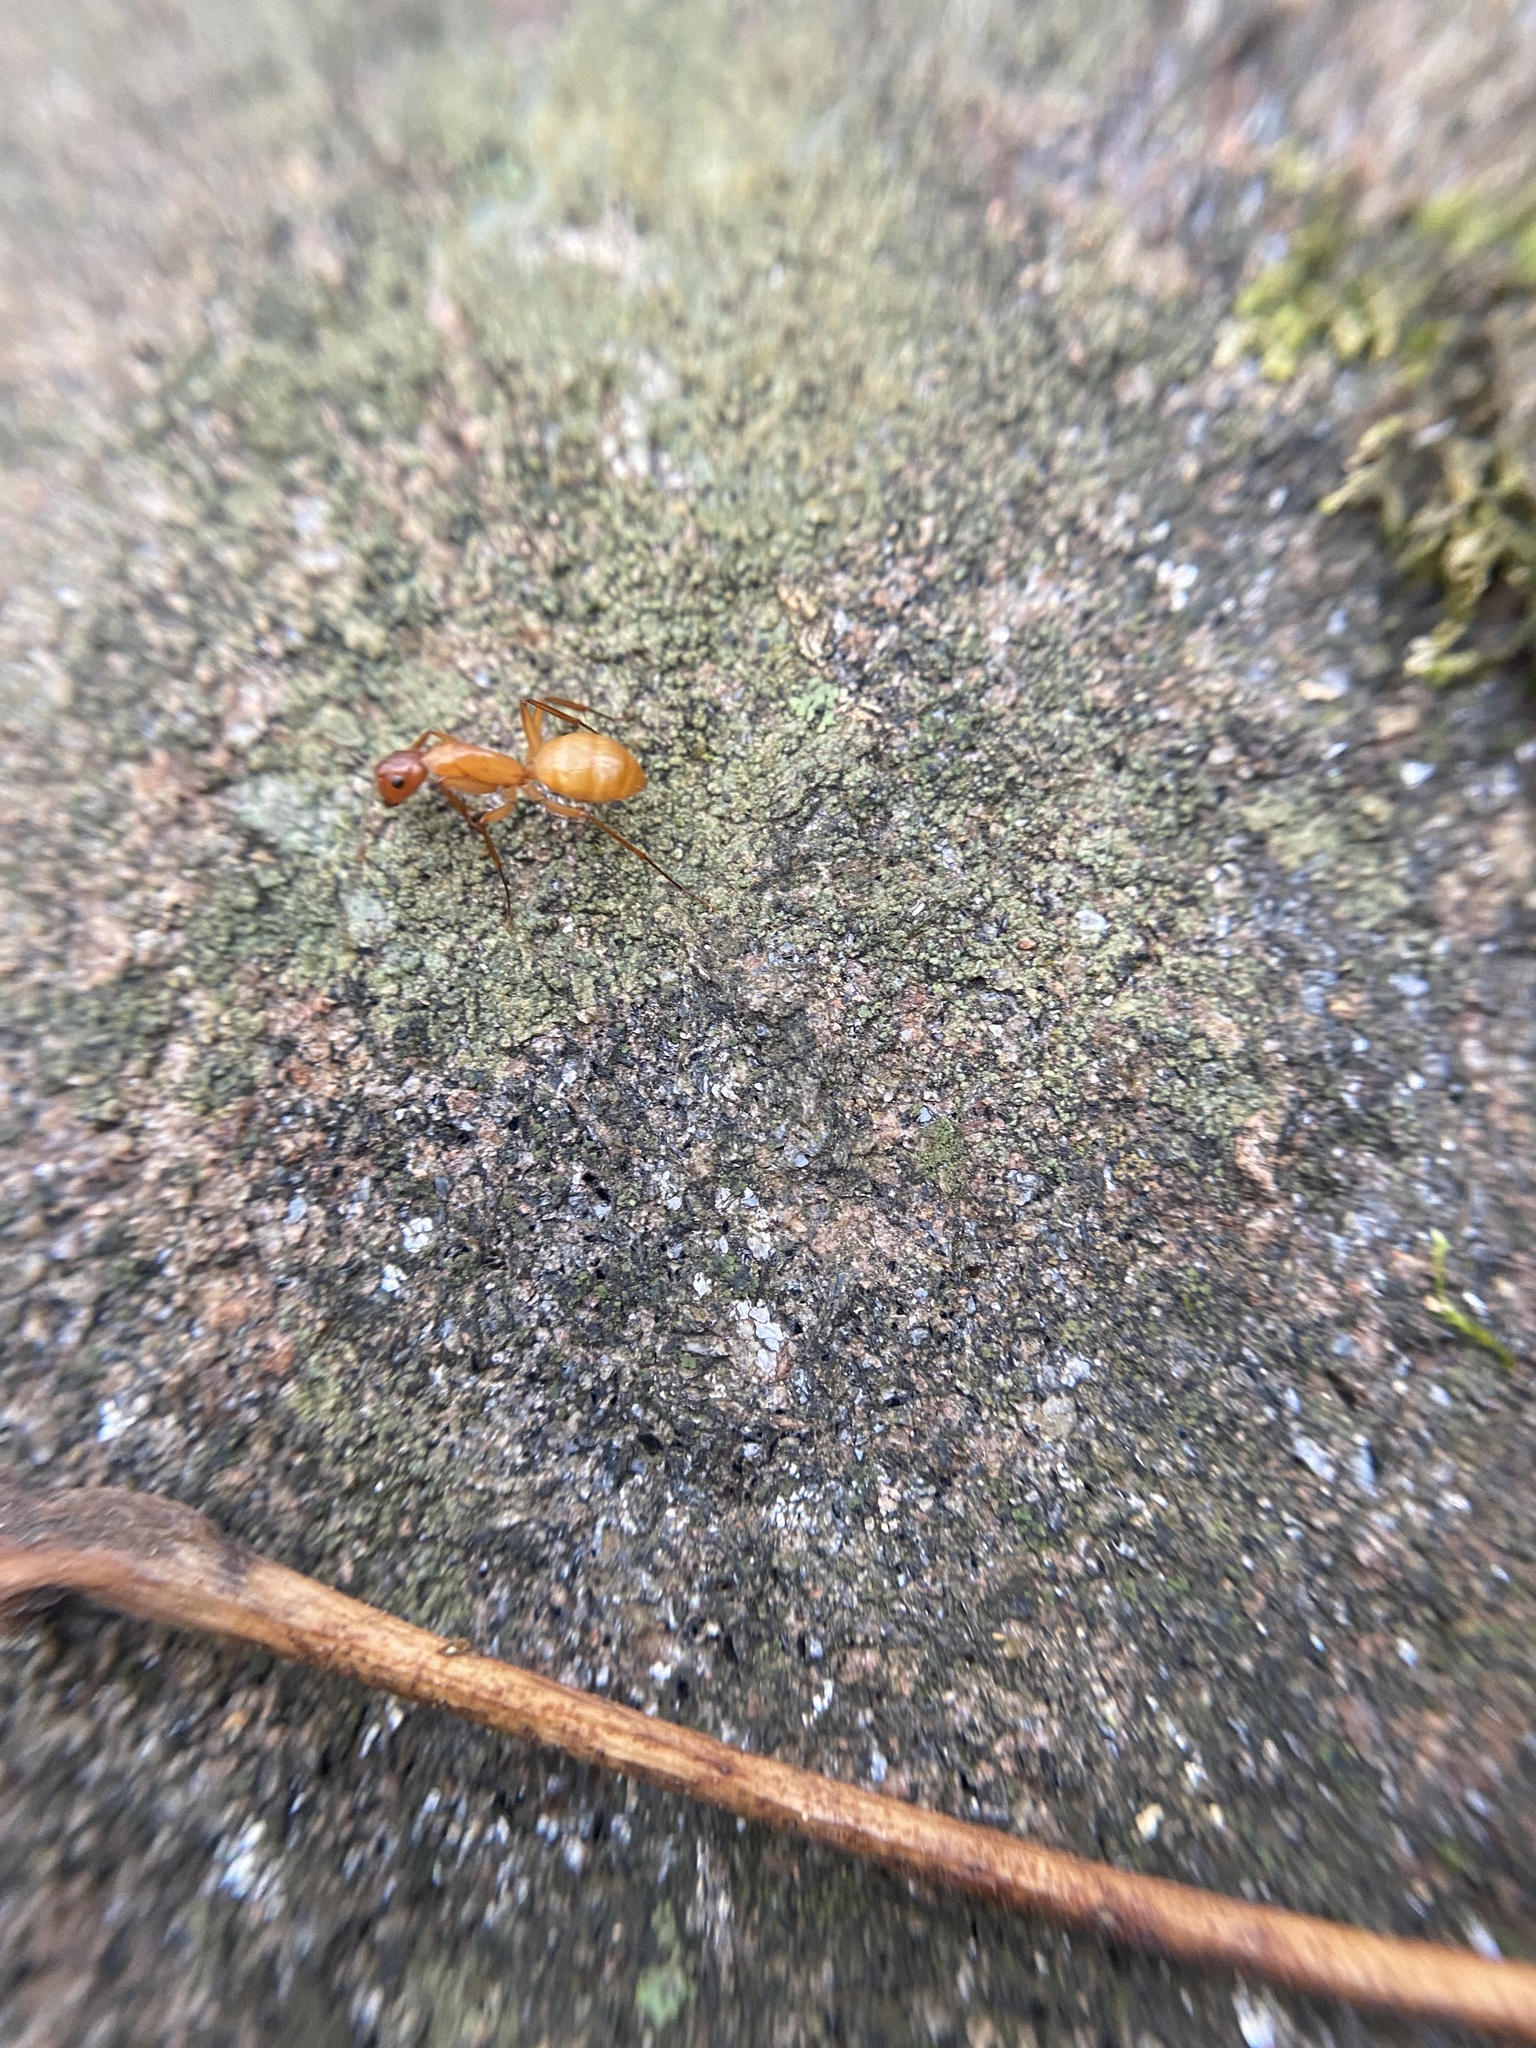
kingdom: Animalia
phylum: Arthropoda
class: Insecta
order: Hymenoptera
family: Formicidae
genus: Camponotus
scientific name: Camponotus castaneus
